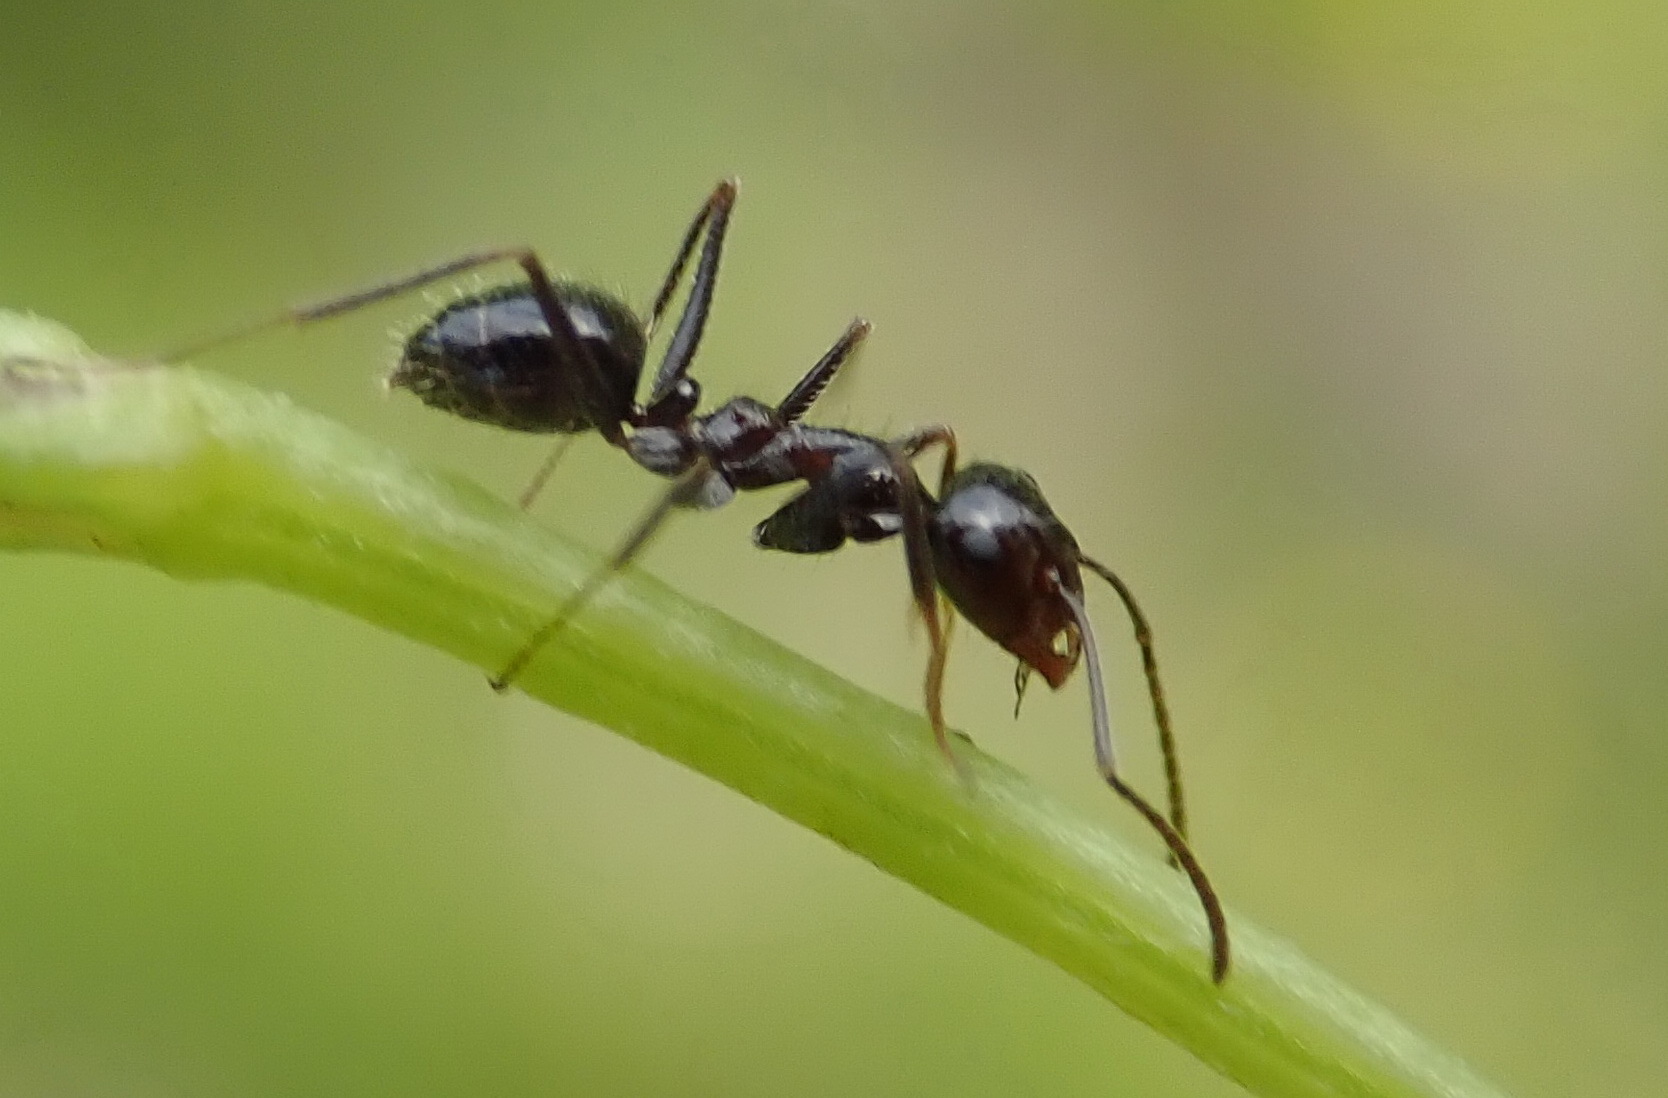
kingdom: Animalia
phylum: Arthropoda
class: Insecta
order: Hymenoptera
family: Formicidae
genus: Anoplolepis
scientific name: Anoplolepis steingroeveri
